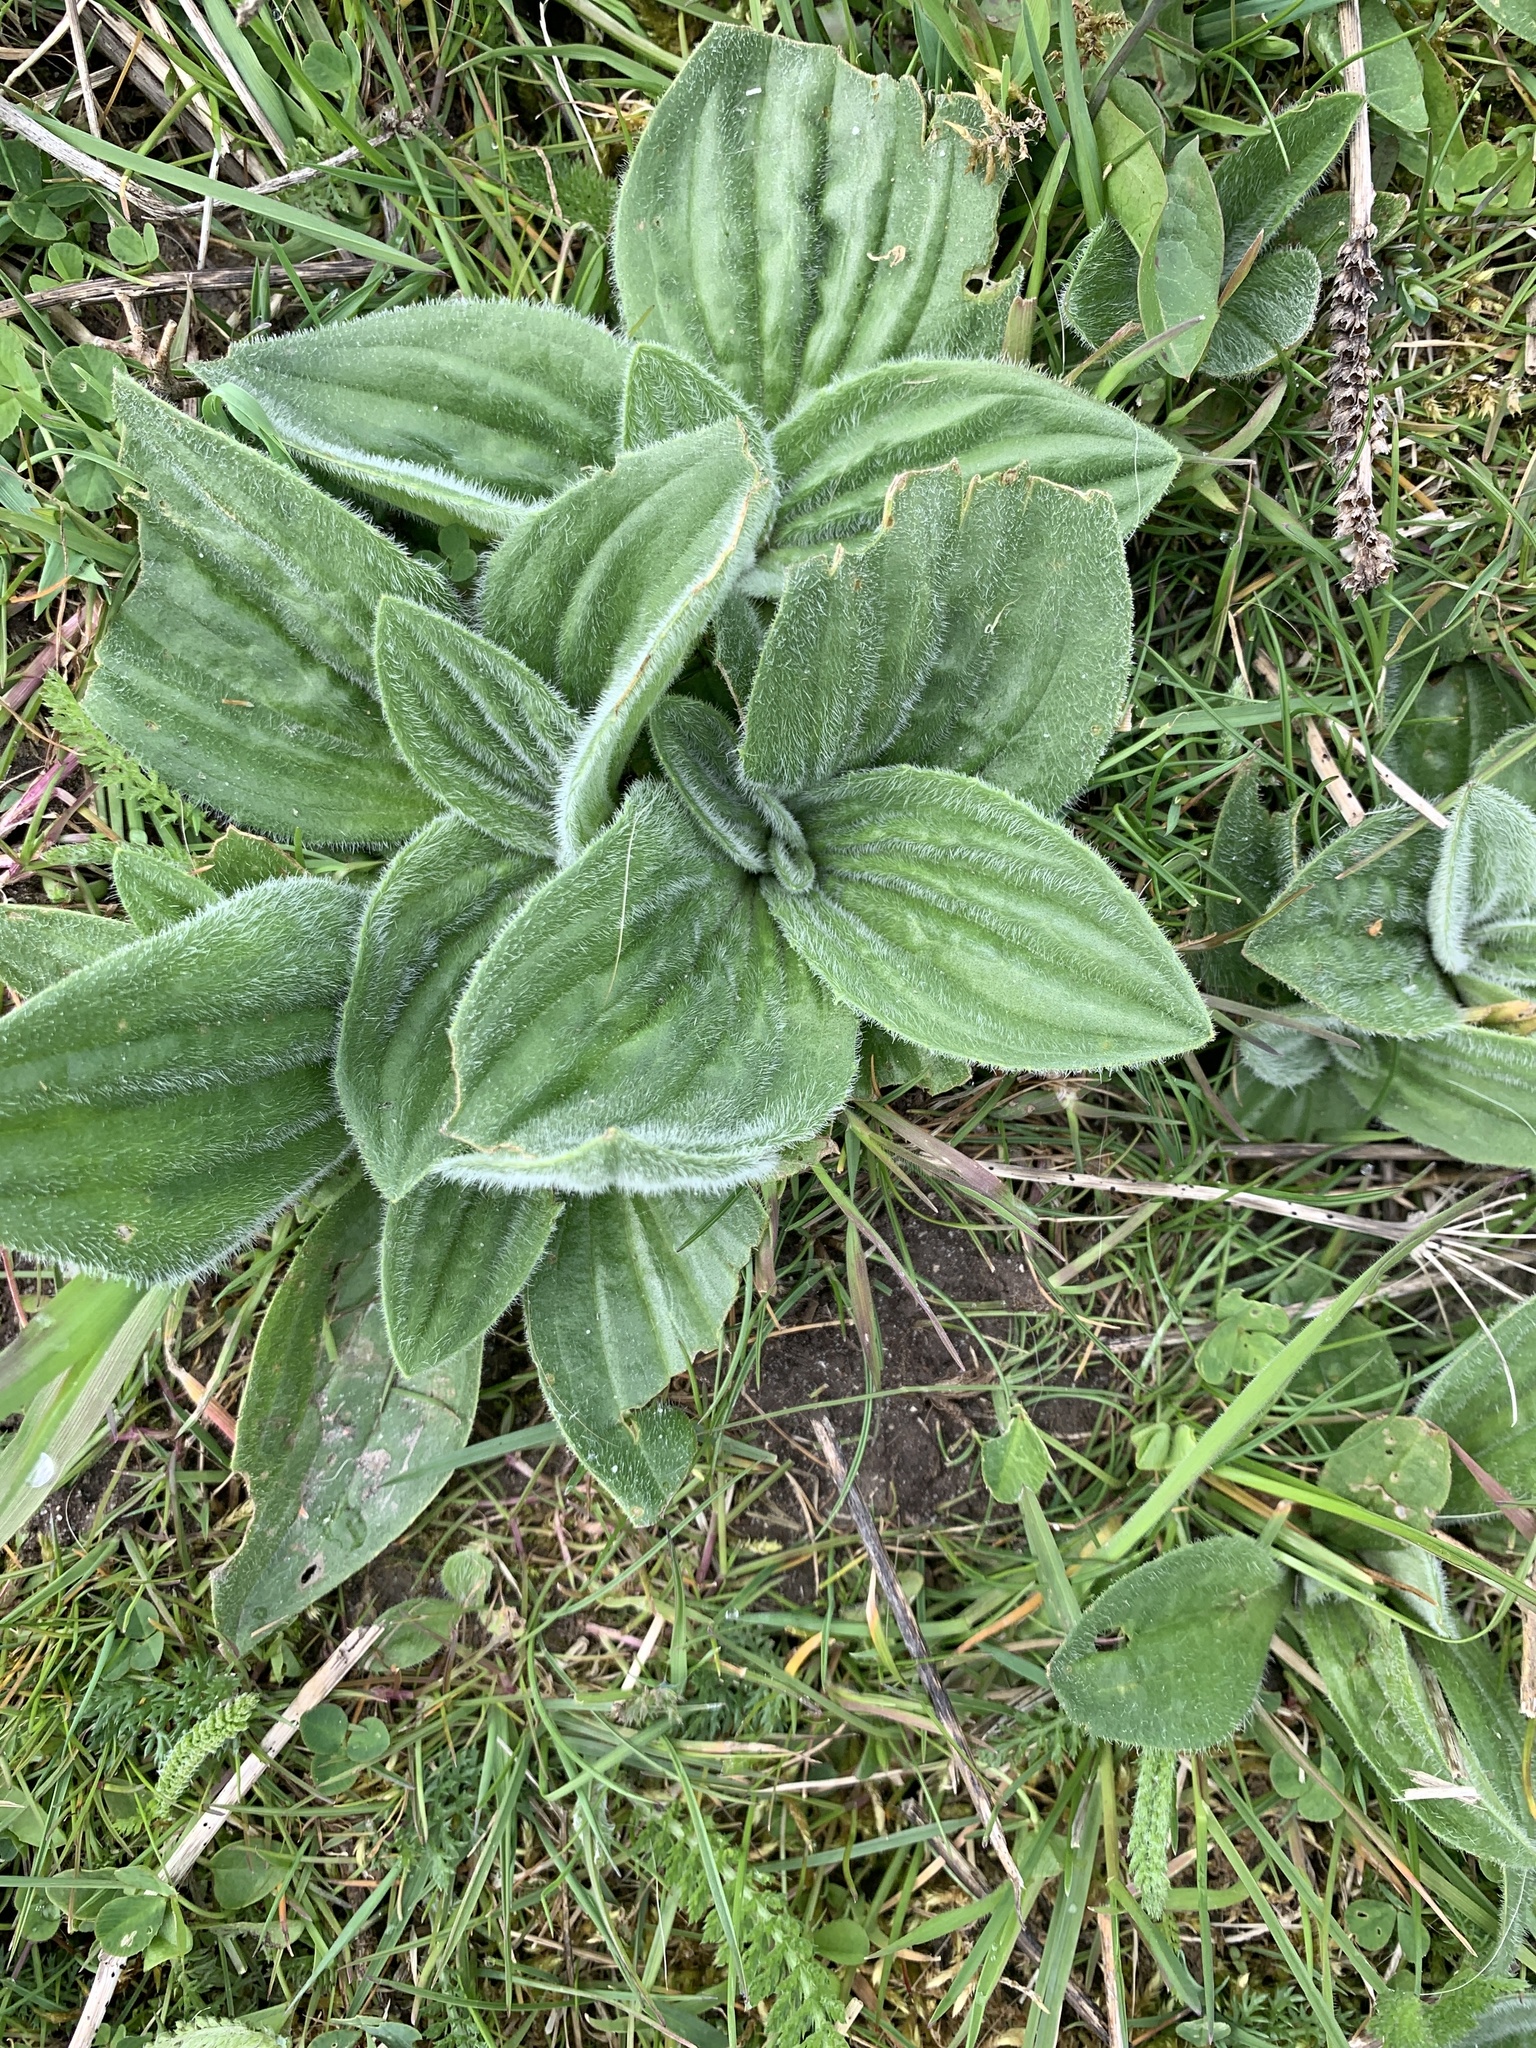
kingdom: Plantae
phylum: Tracheophyta
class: Magnoliopsida
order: Lamiales
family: Plantaginaceae
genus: Plantago
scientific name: Plantago media
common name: Hoary plantain
